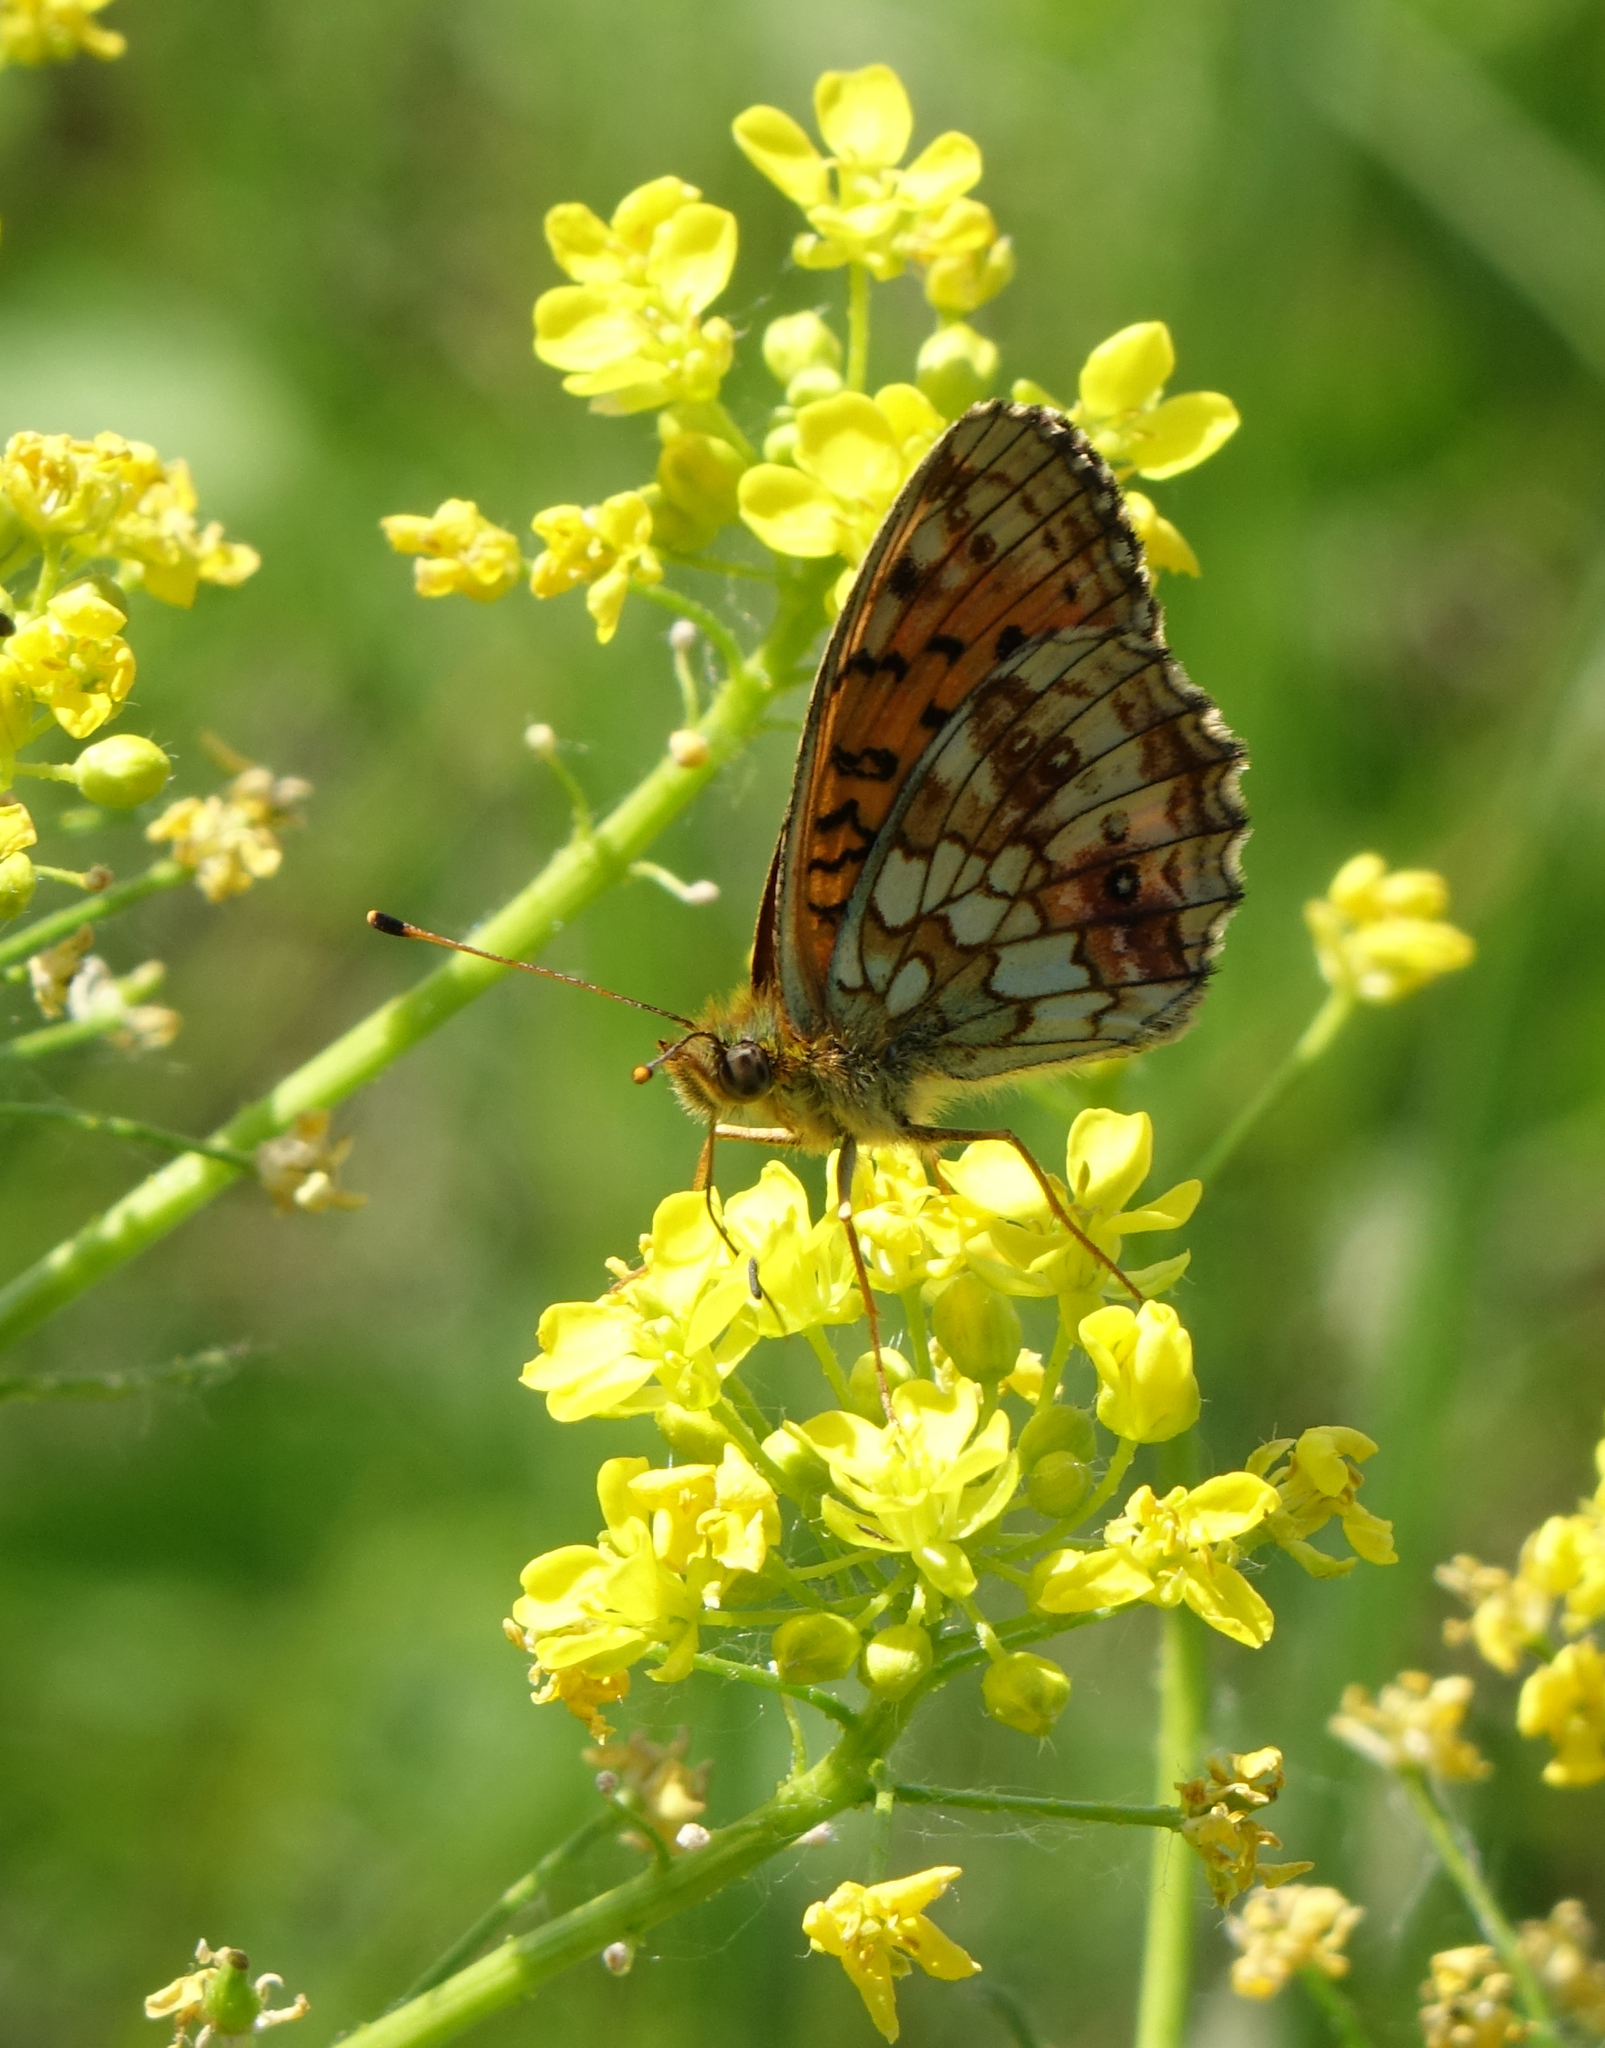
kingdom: Animalia
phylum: Arthropoda
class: Insecta
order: Lepidoptera
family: Nymphalidae
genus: Brenthis
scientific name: Brenthis ino
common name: Lesser marbled fritillary
